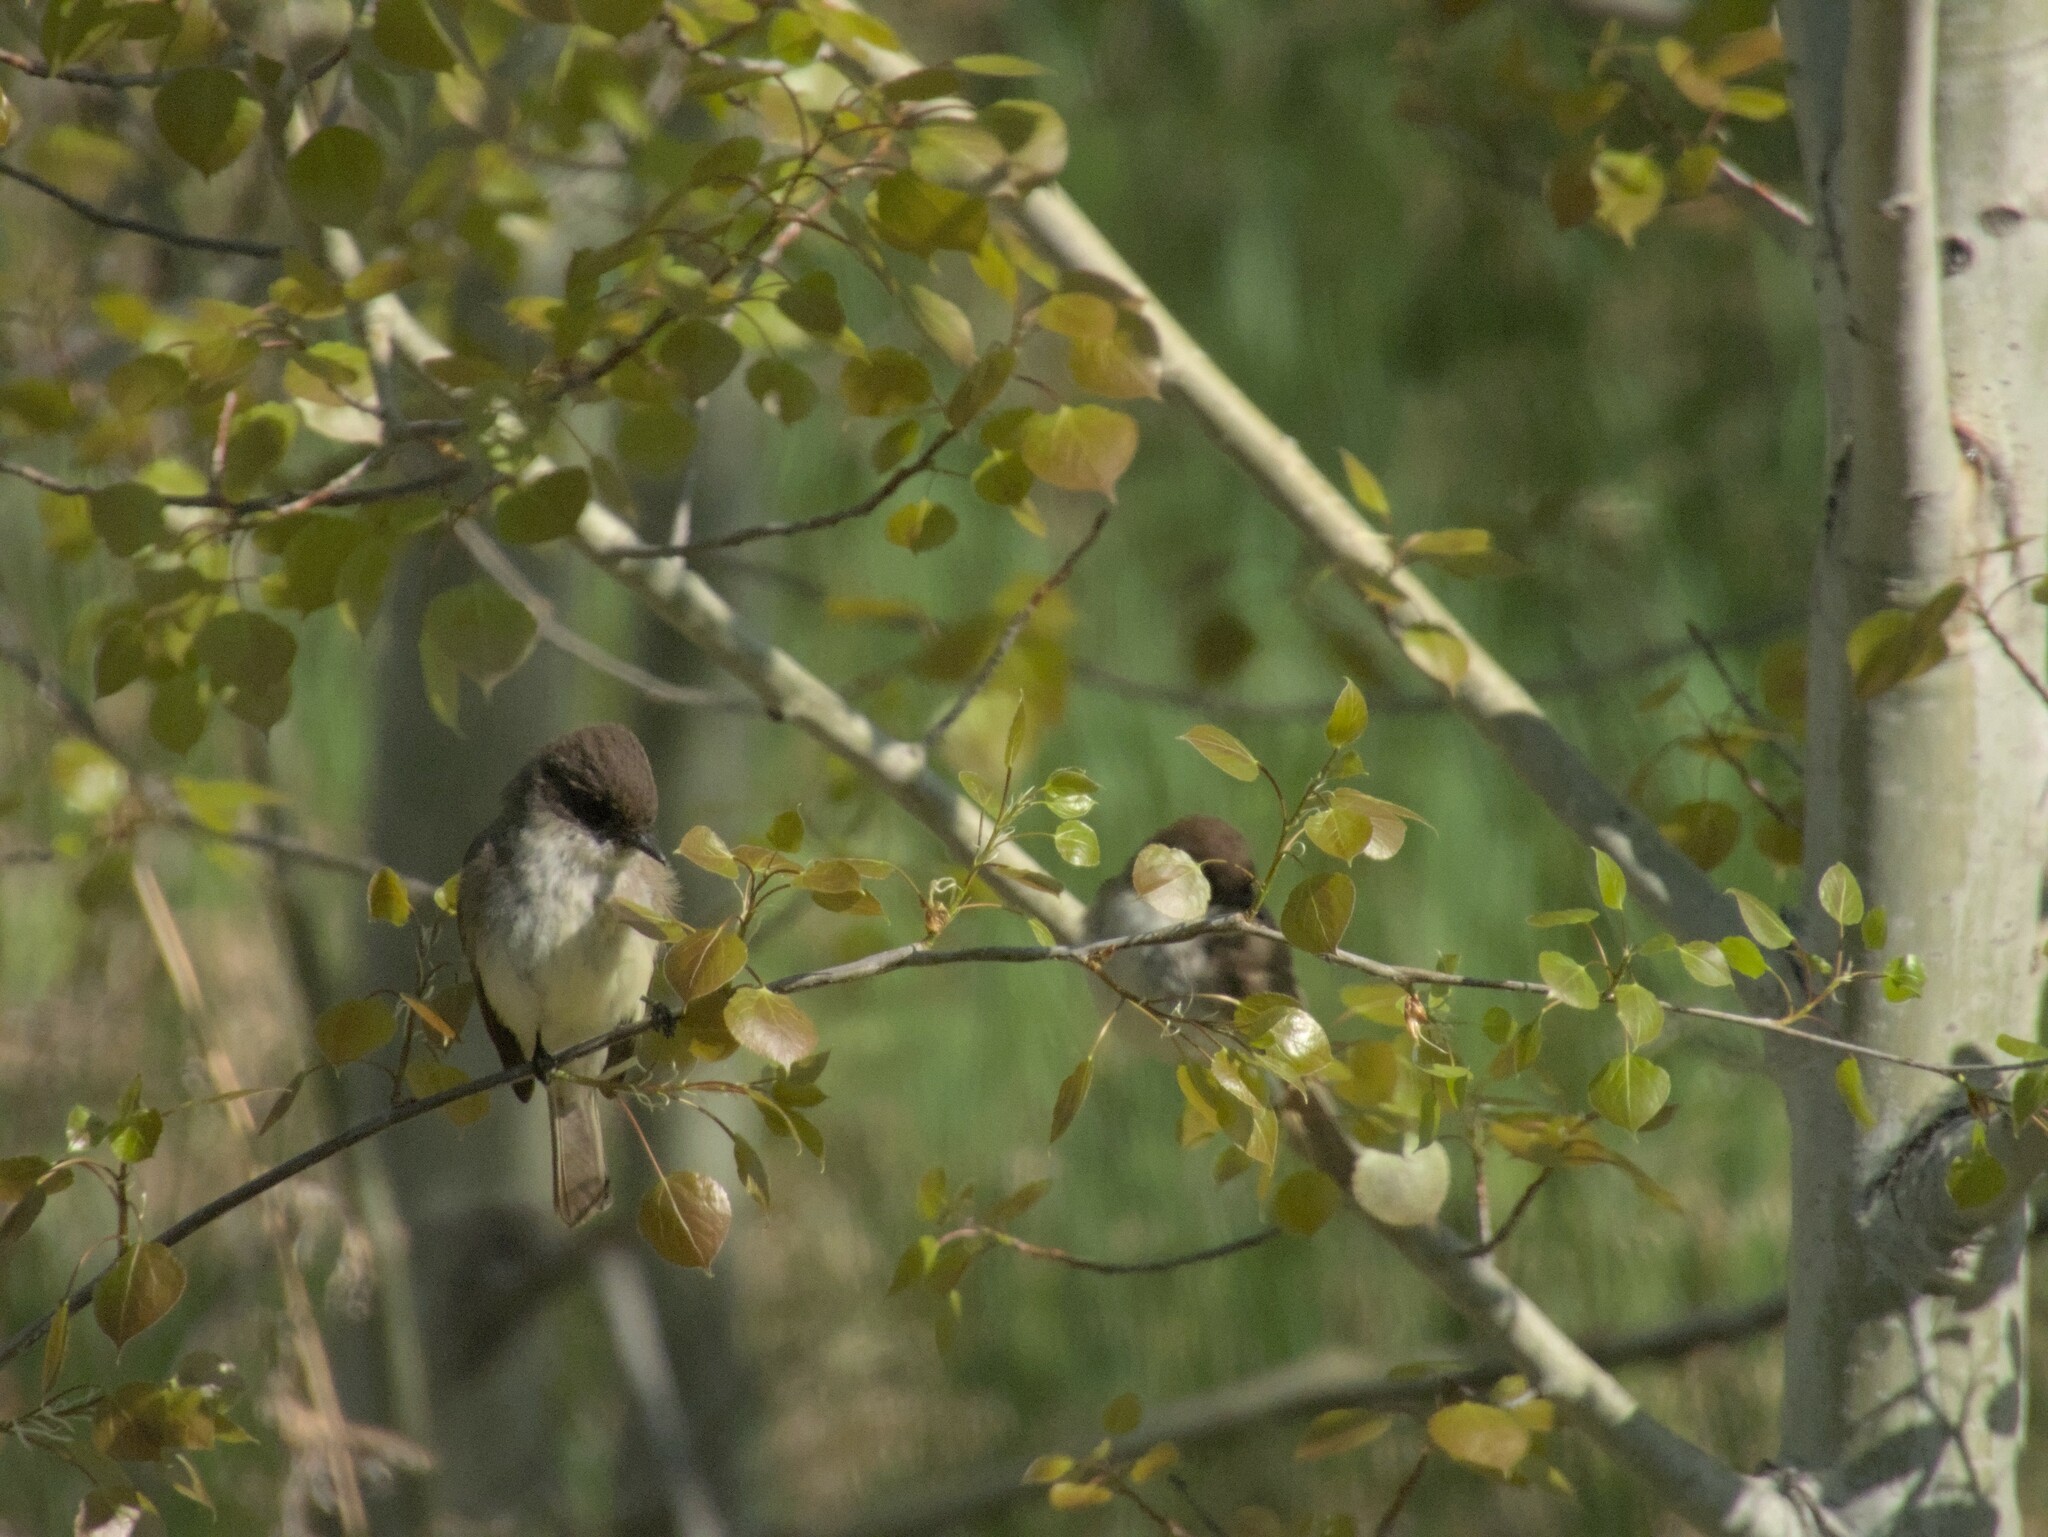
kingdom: Animalia
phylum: Chordata
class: Aves
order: Passeriformes
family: Tyrannidae
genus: Sayornis
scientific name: Sayornis phoebe
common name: Eastern phoebe
